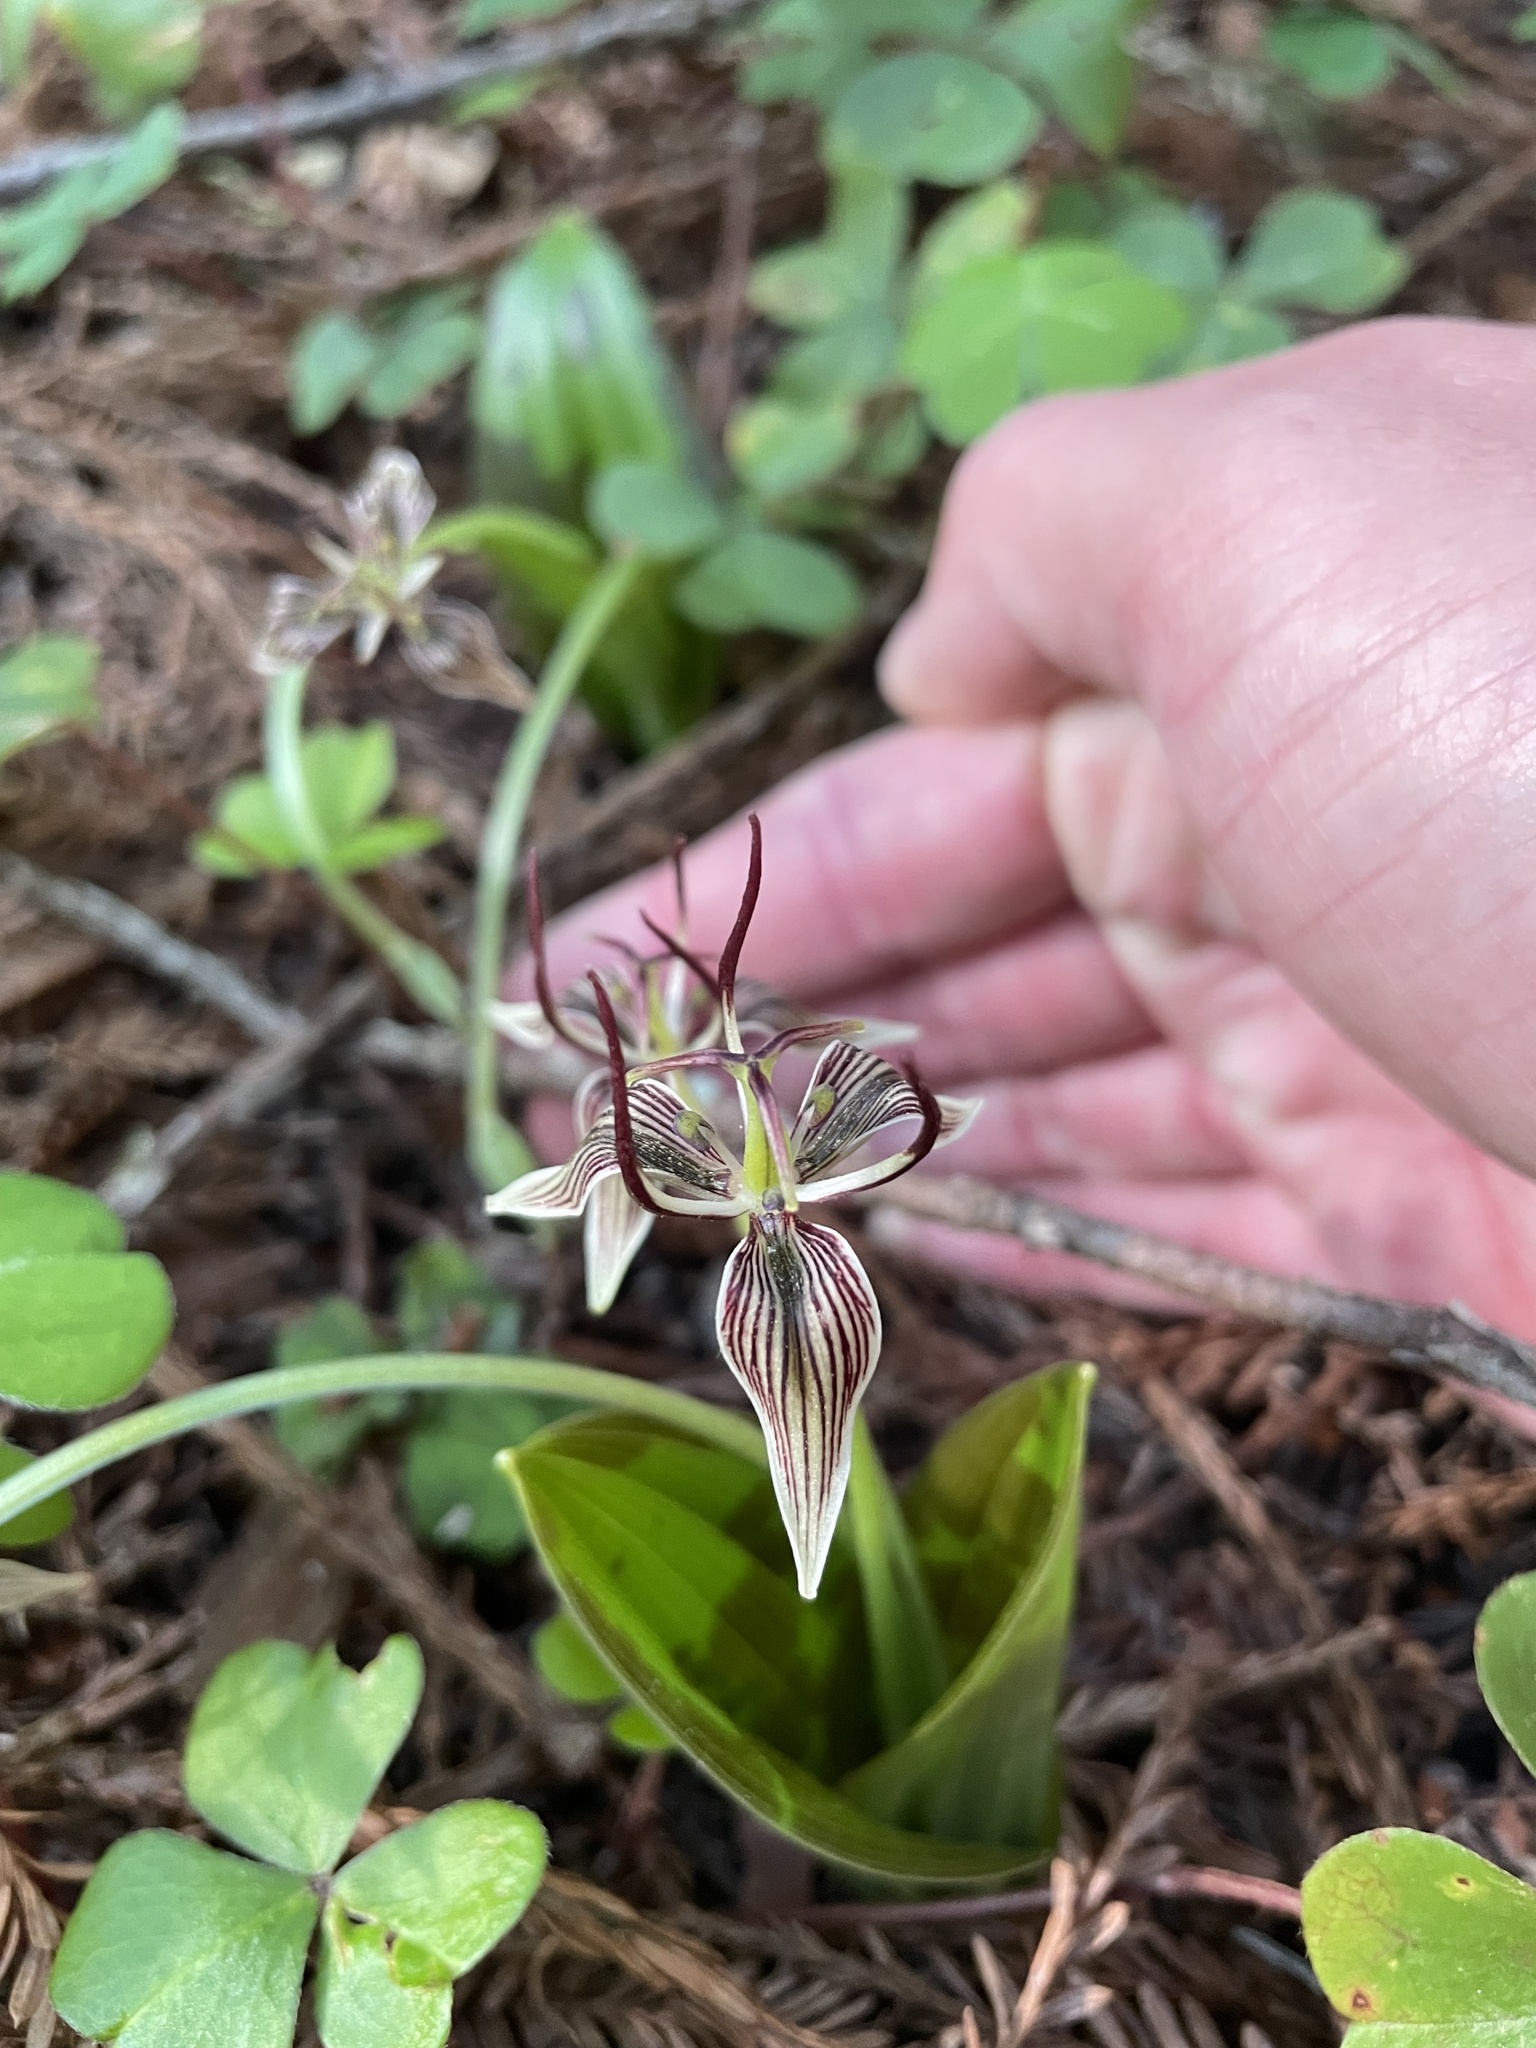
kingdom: Plantae
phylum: Tracheophyta
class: Liliopsida
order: Liliales
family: Liliaceae
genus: Scoliopus
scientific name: Scoliopus bigelovii
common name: Foetid adder's-tongue
